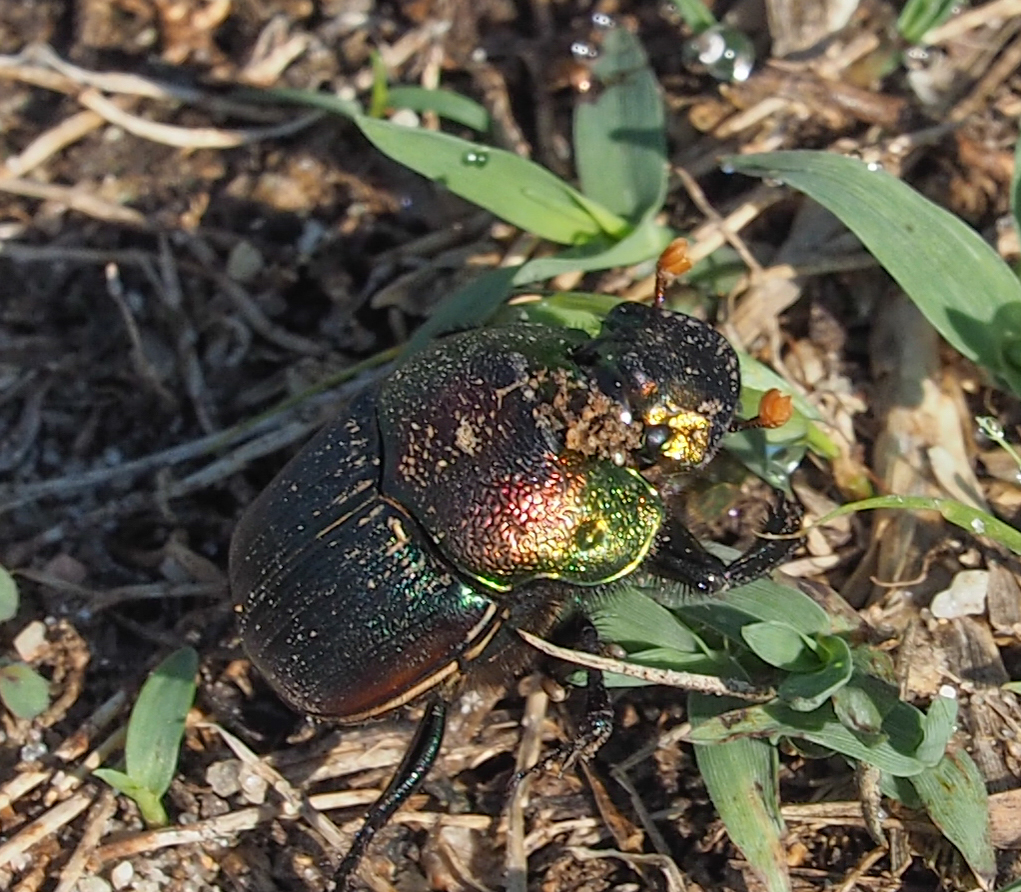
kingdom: Animalia
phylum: Arthropoda
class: Insecta
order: Coleoptera
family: Scarabaeidae
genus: Phanaeus
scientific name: Phanaeus vindex
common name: Rainbow scarab
